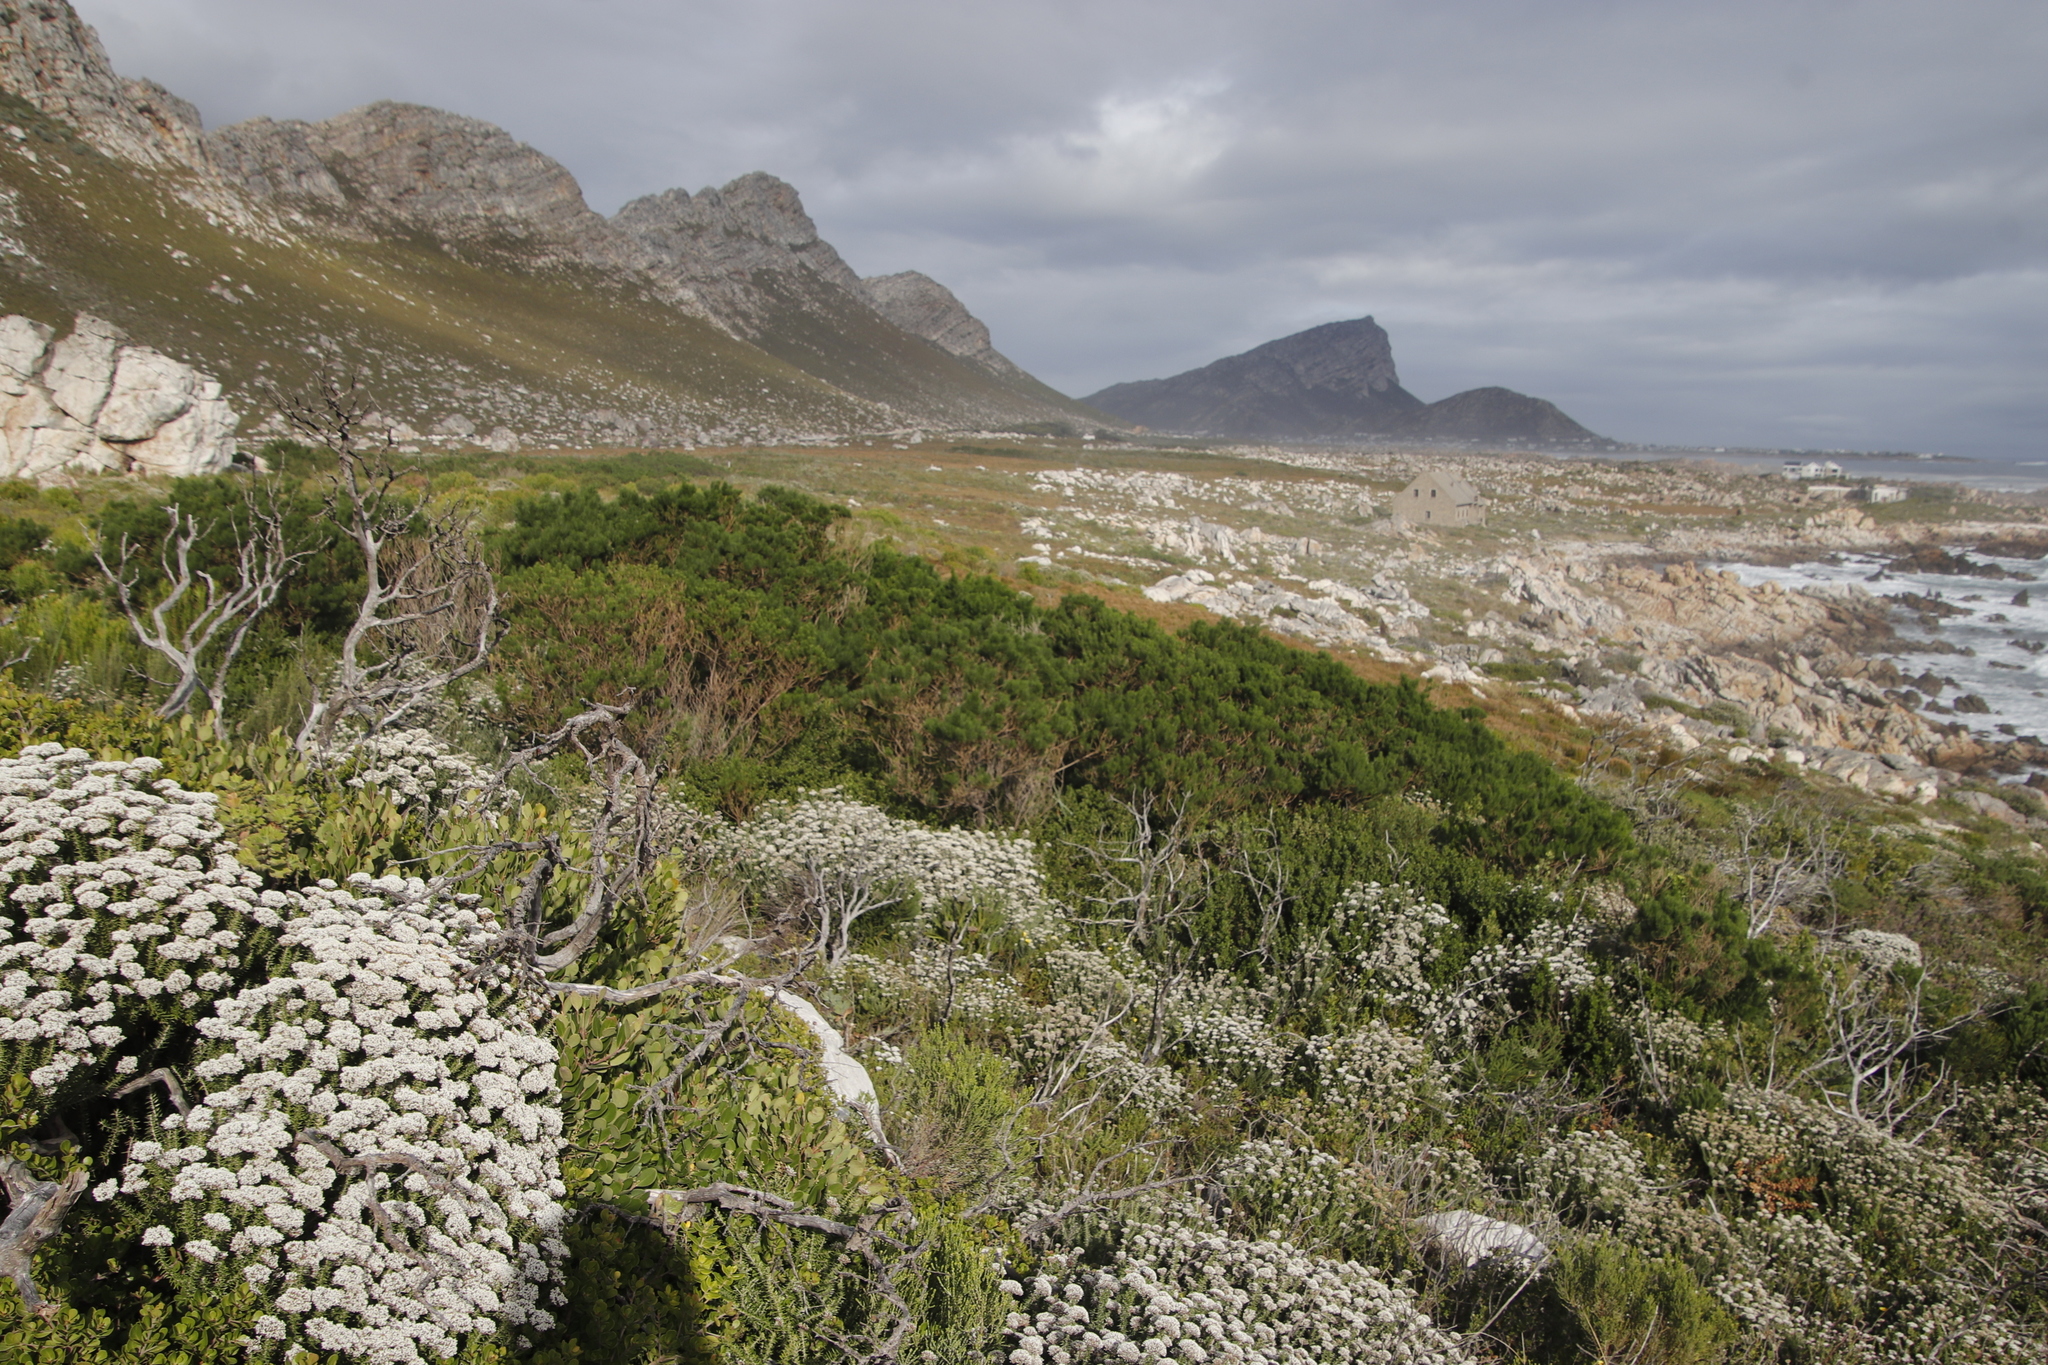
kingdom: Plantae
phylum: Tracheophyta
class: Magnoliopsida
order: Fabales
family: Fabaceae
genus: Psoralea
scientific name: Psoralea pinnata
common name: African scurfpea
